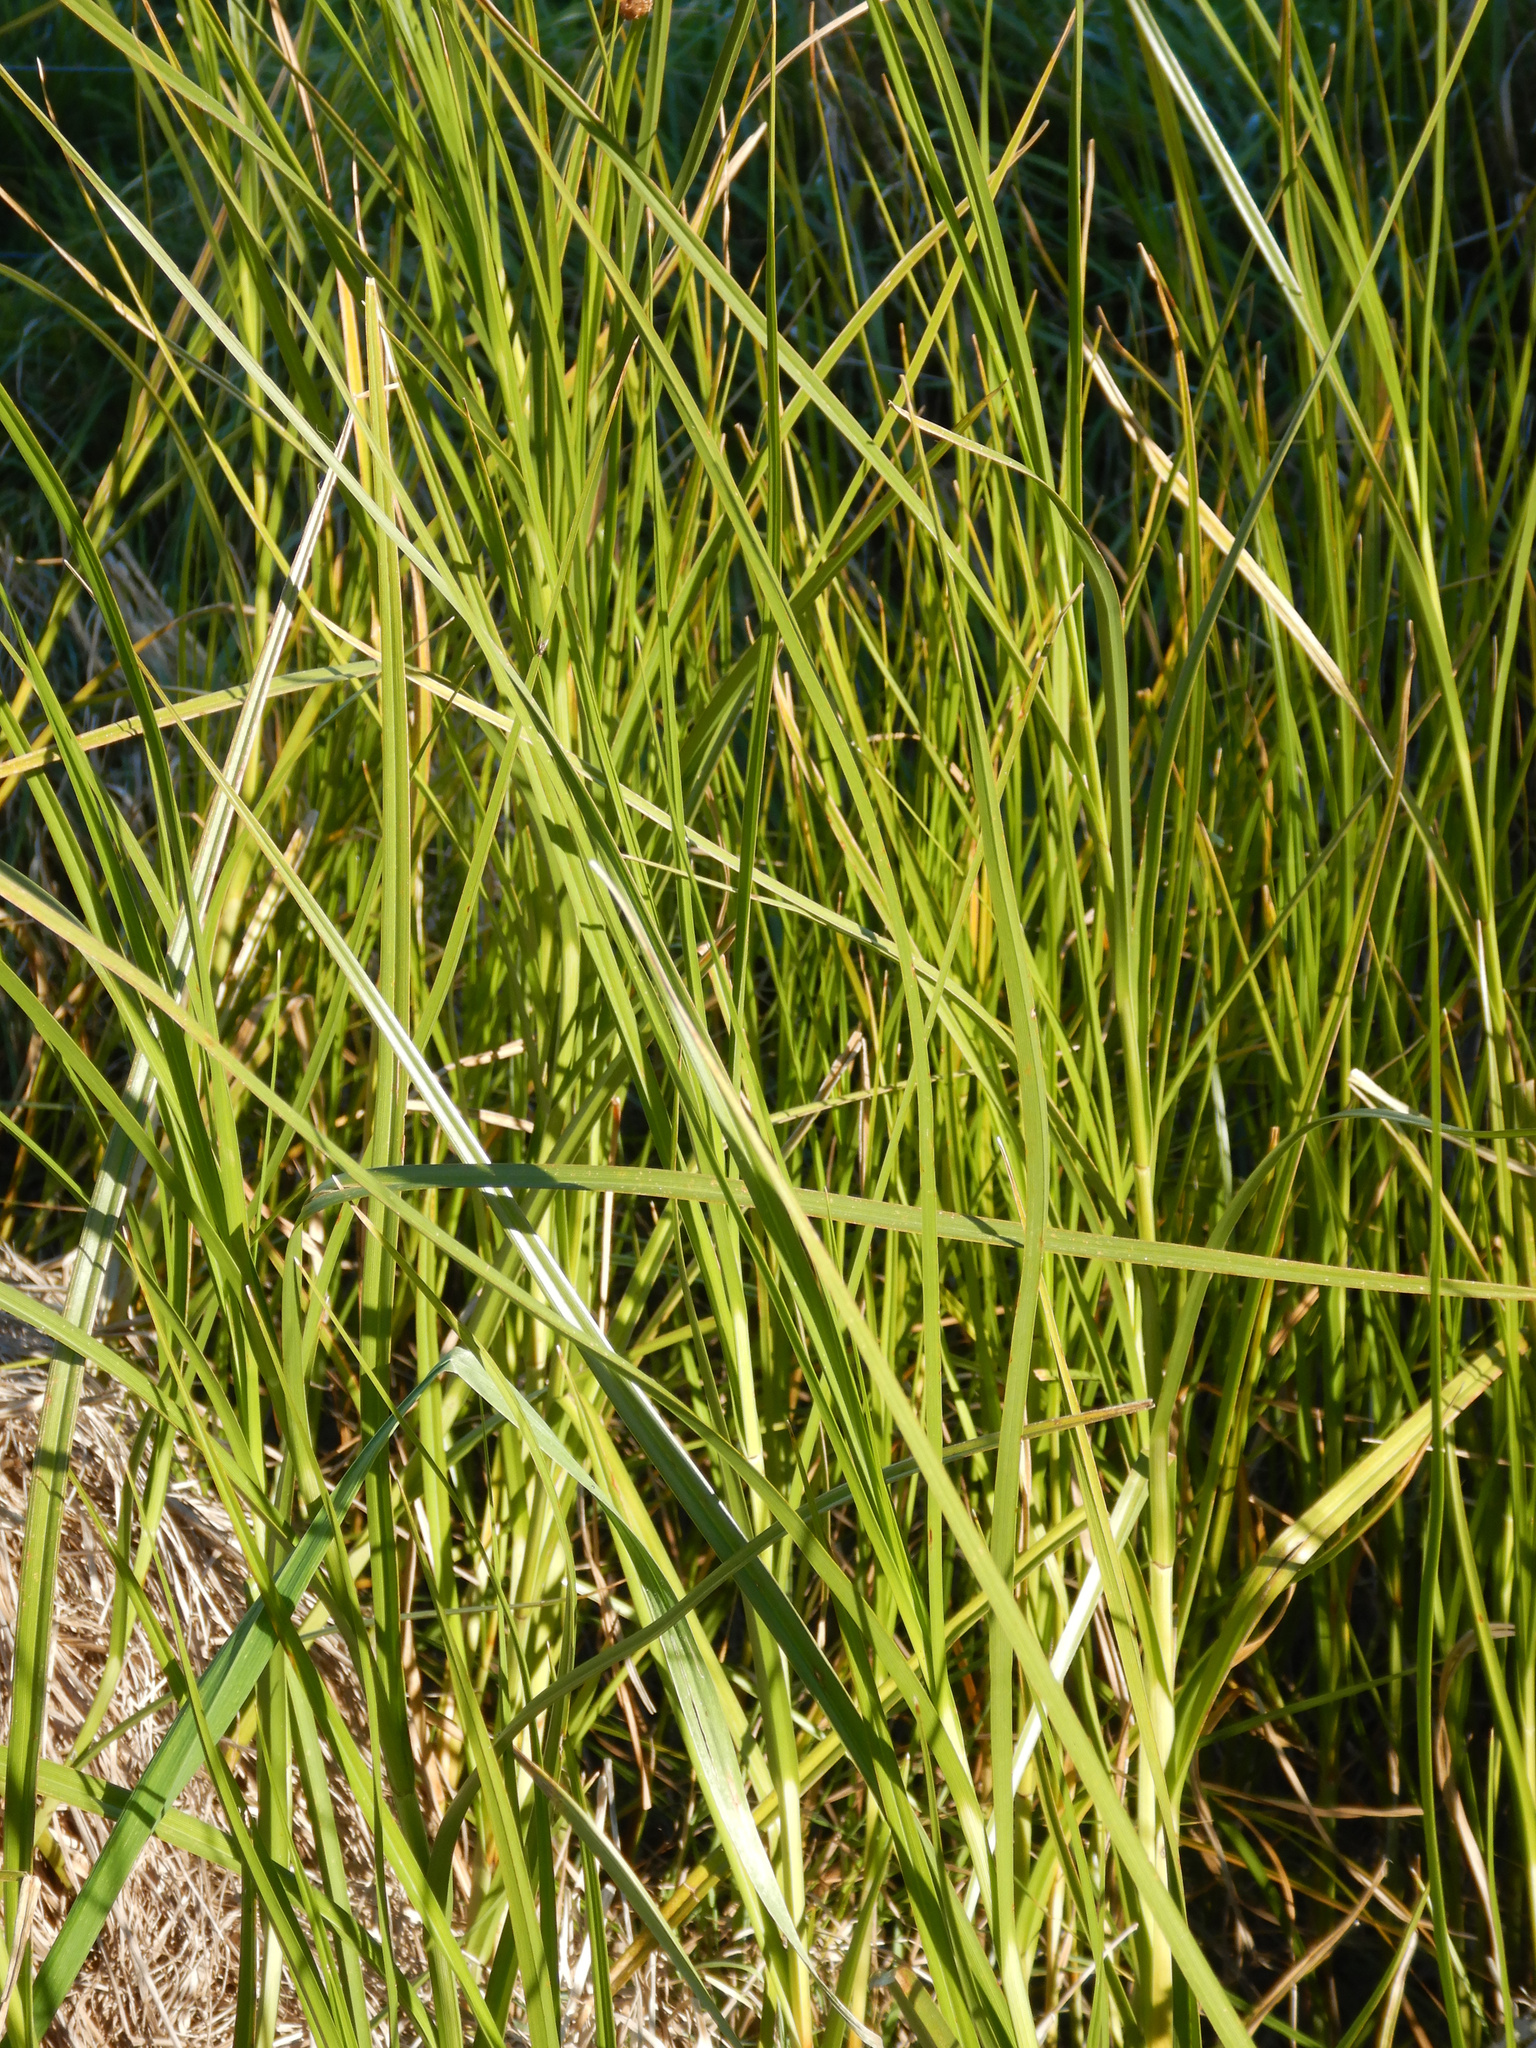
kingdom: Plantae
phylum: Tracheophyta
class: Liliopsida
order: Poales
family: Cyperaceae
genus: Schoenoplectus
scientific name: Schoenoplectus pungens
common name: Sharp club-rush
